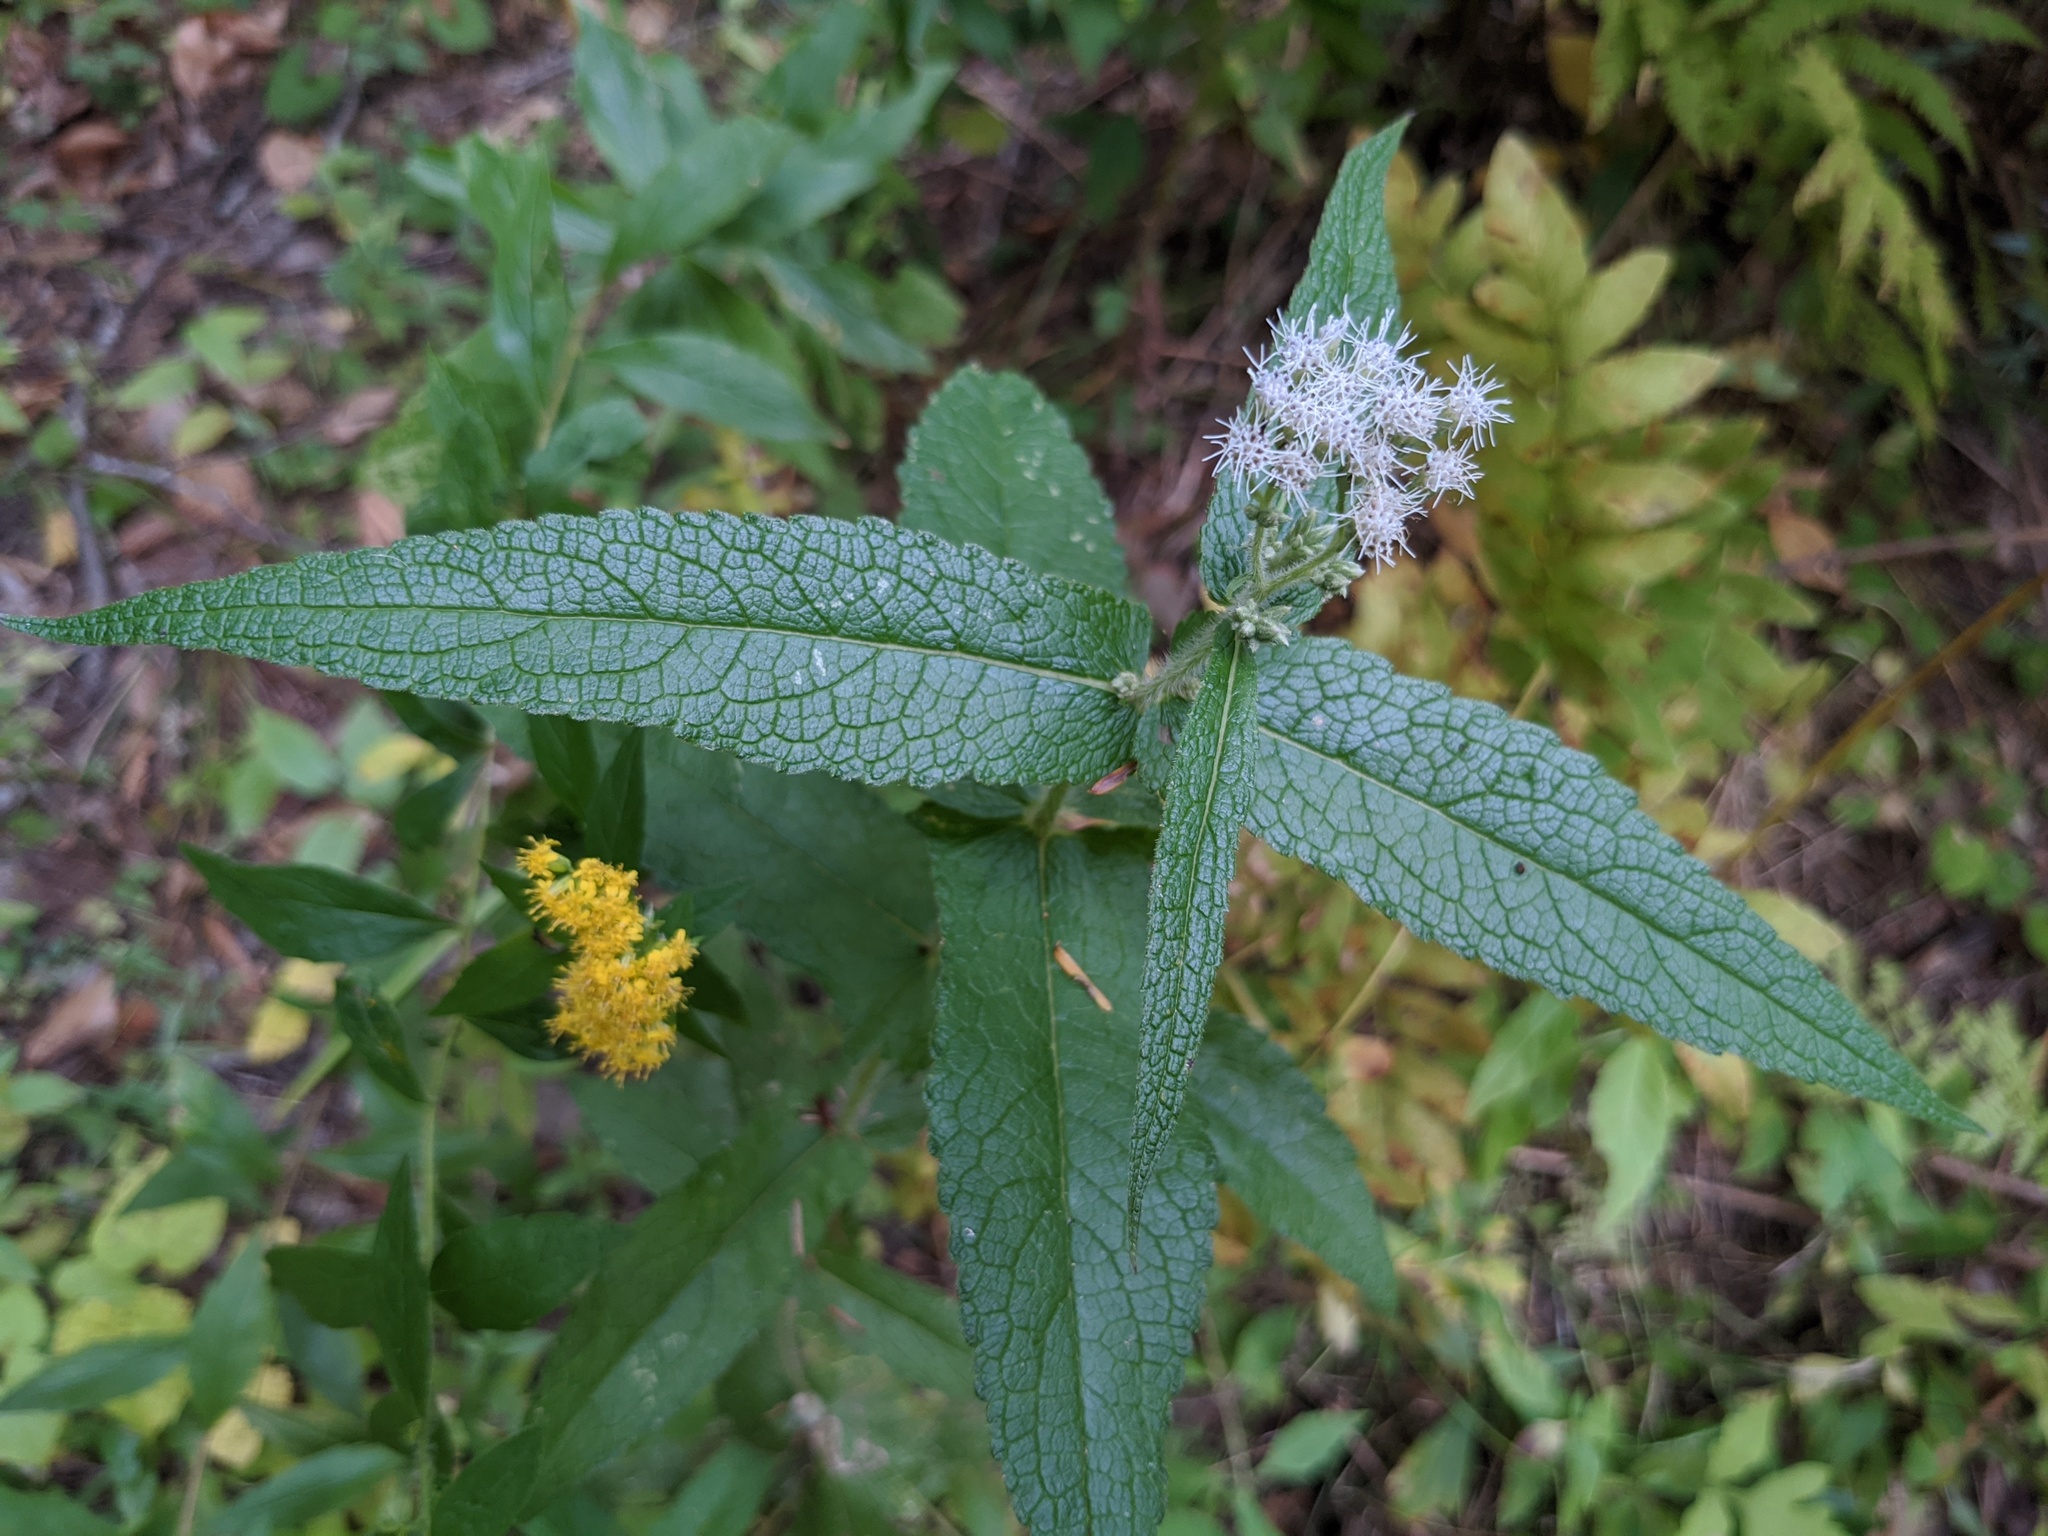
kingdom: Plantae
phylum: Tracheophyta
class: Magnoliopsida
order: Asterales
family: Asteraceae
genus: Eupatorium
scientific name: Eupatorium perfoliatum
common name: Boneset
